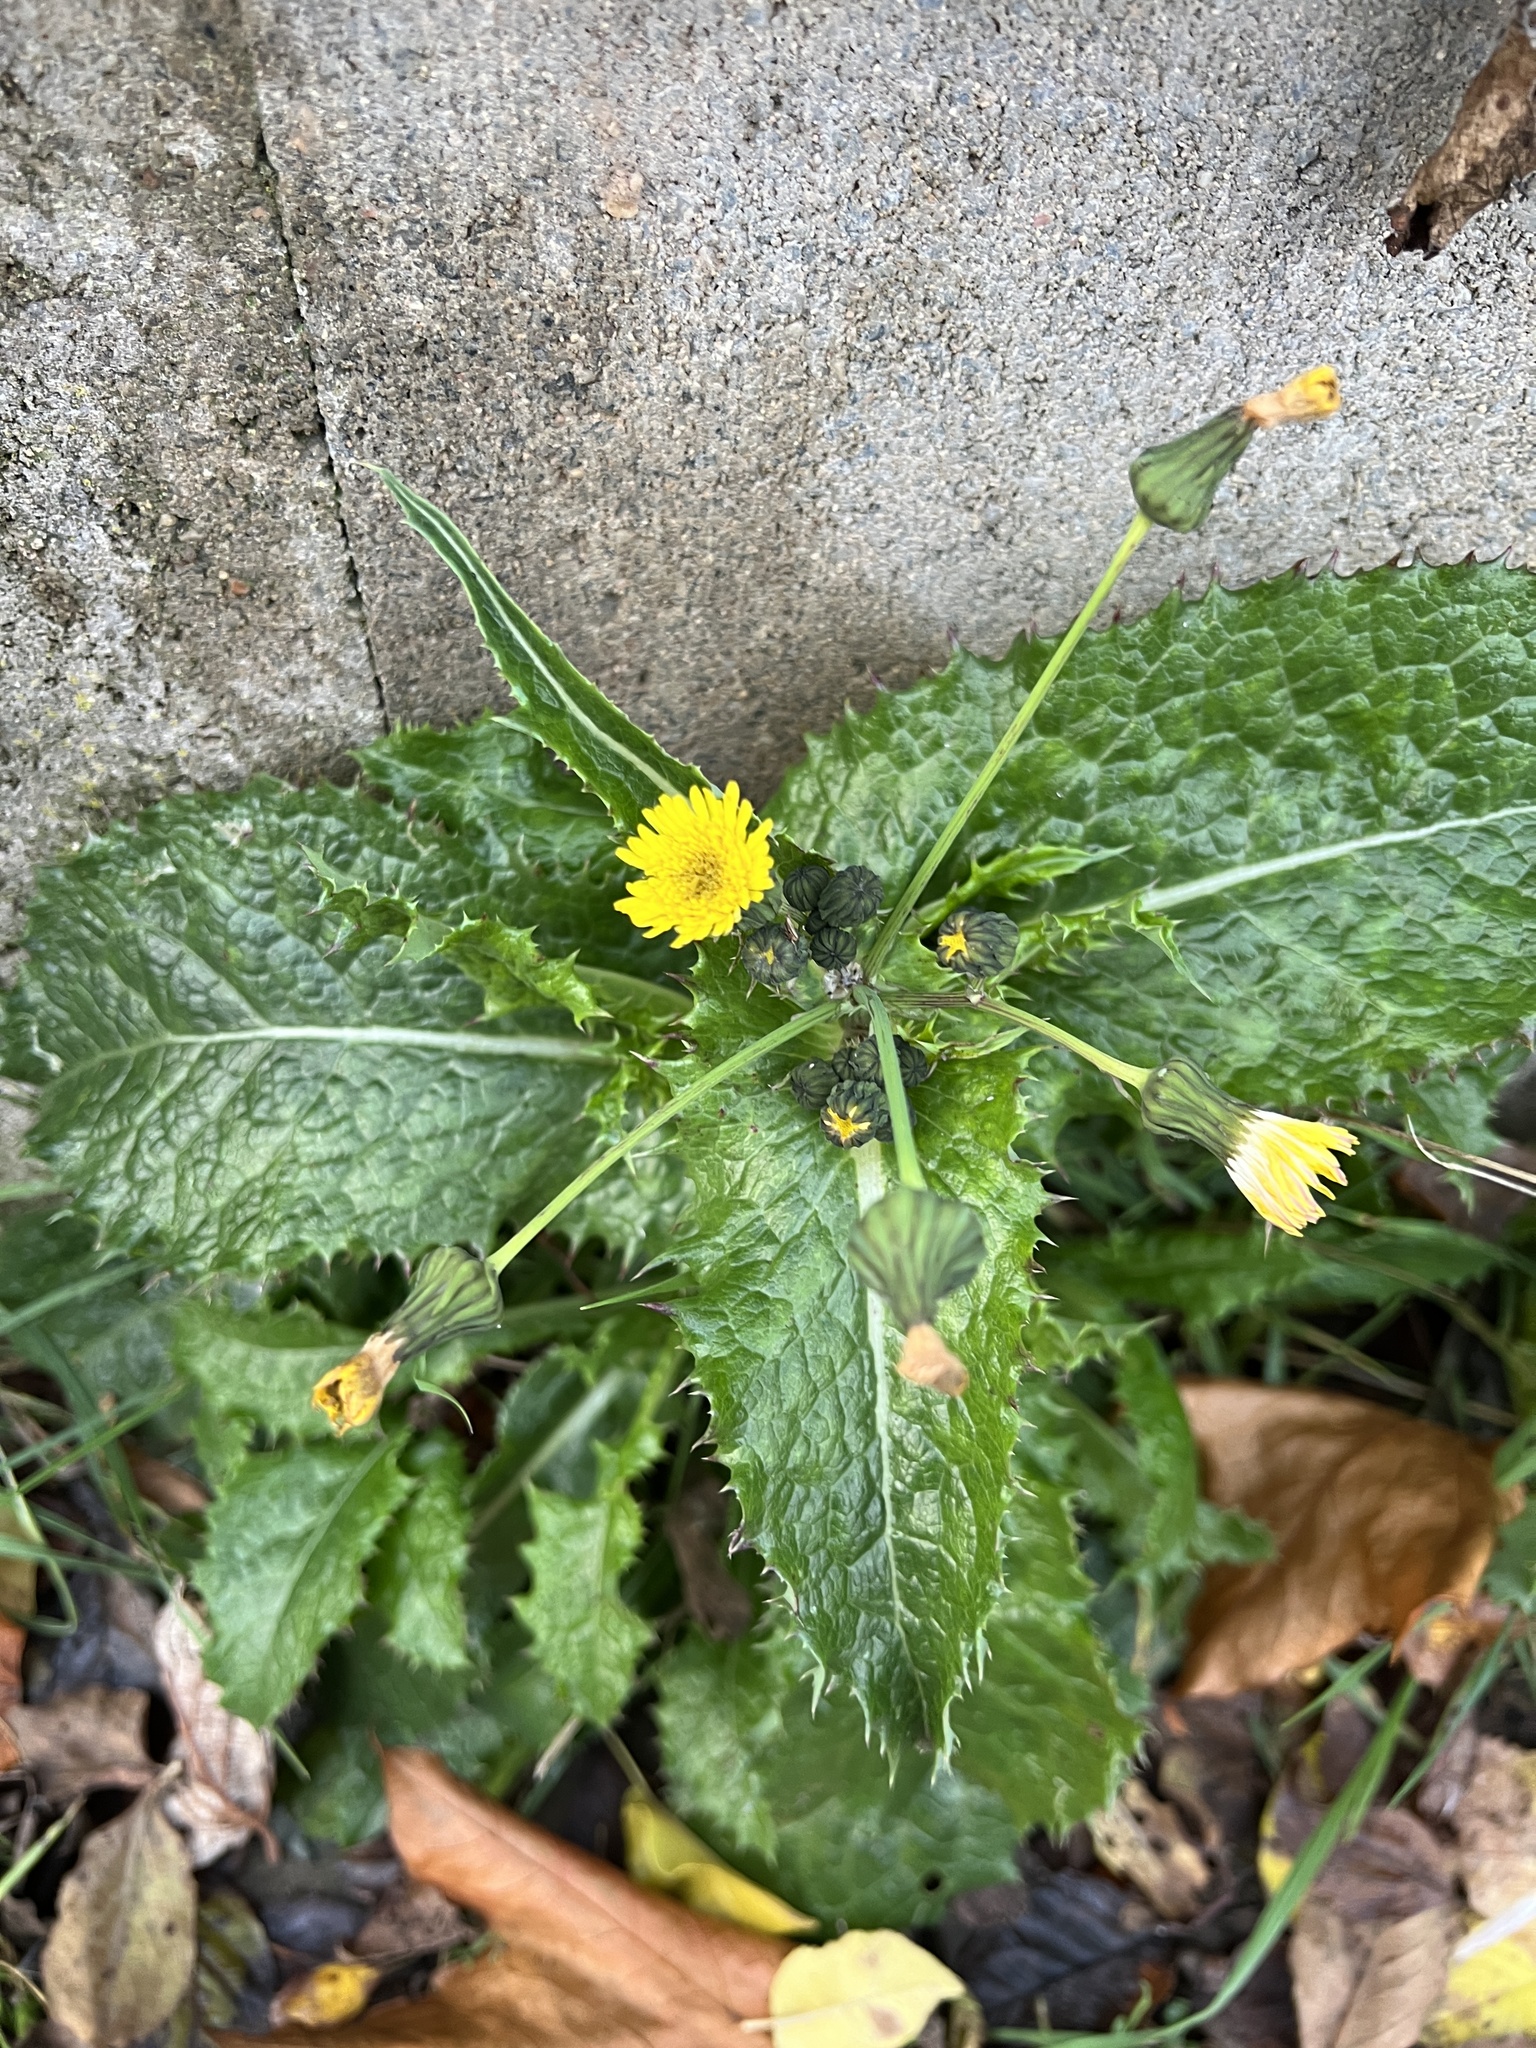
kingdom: Plantae
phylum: Tracheophyta
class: Magnoliopsida
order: Asterales
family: Asteraceae
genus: Sonchus
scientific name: Sonchus asper
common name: Prickly sow-thistle
